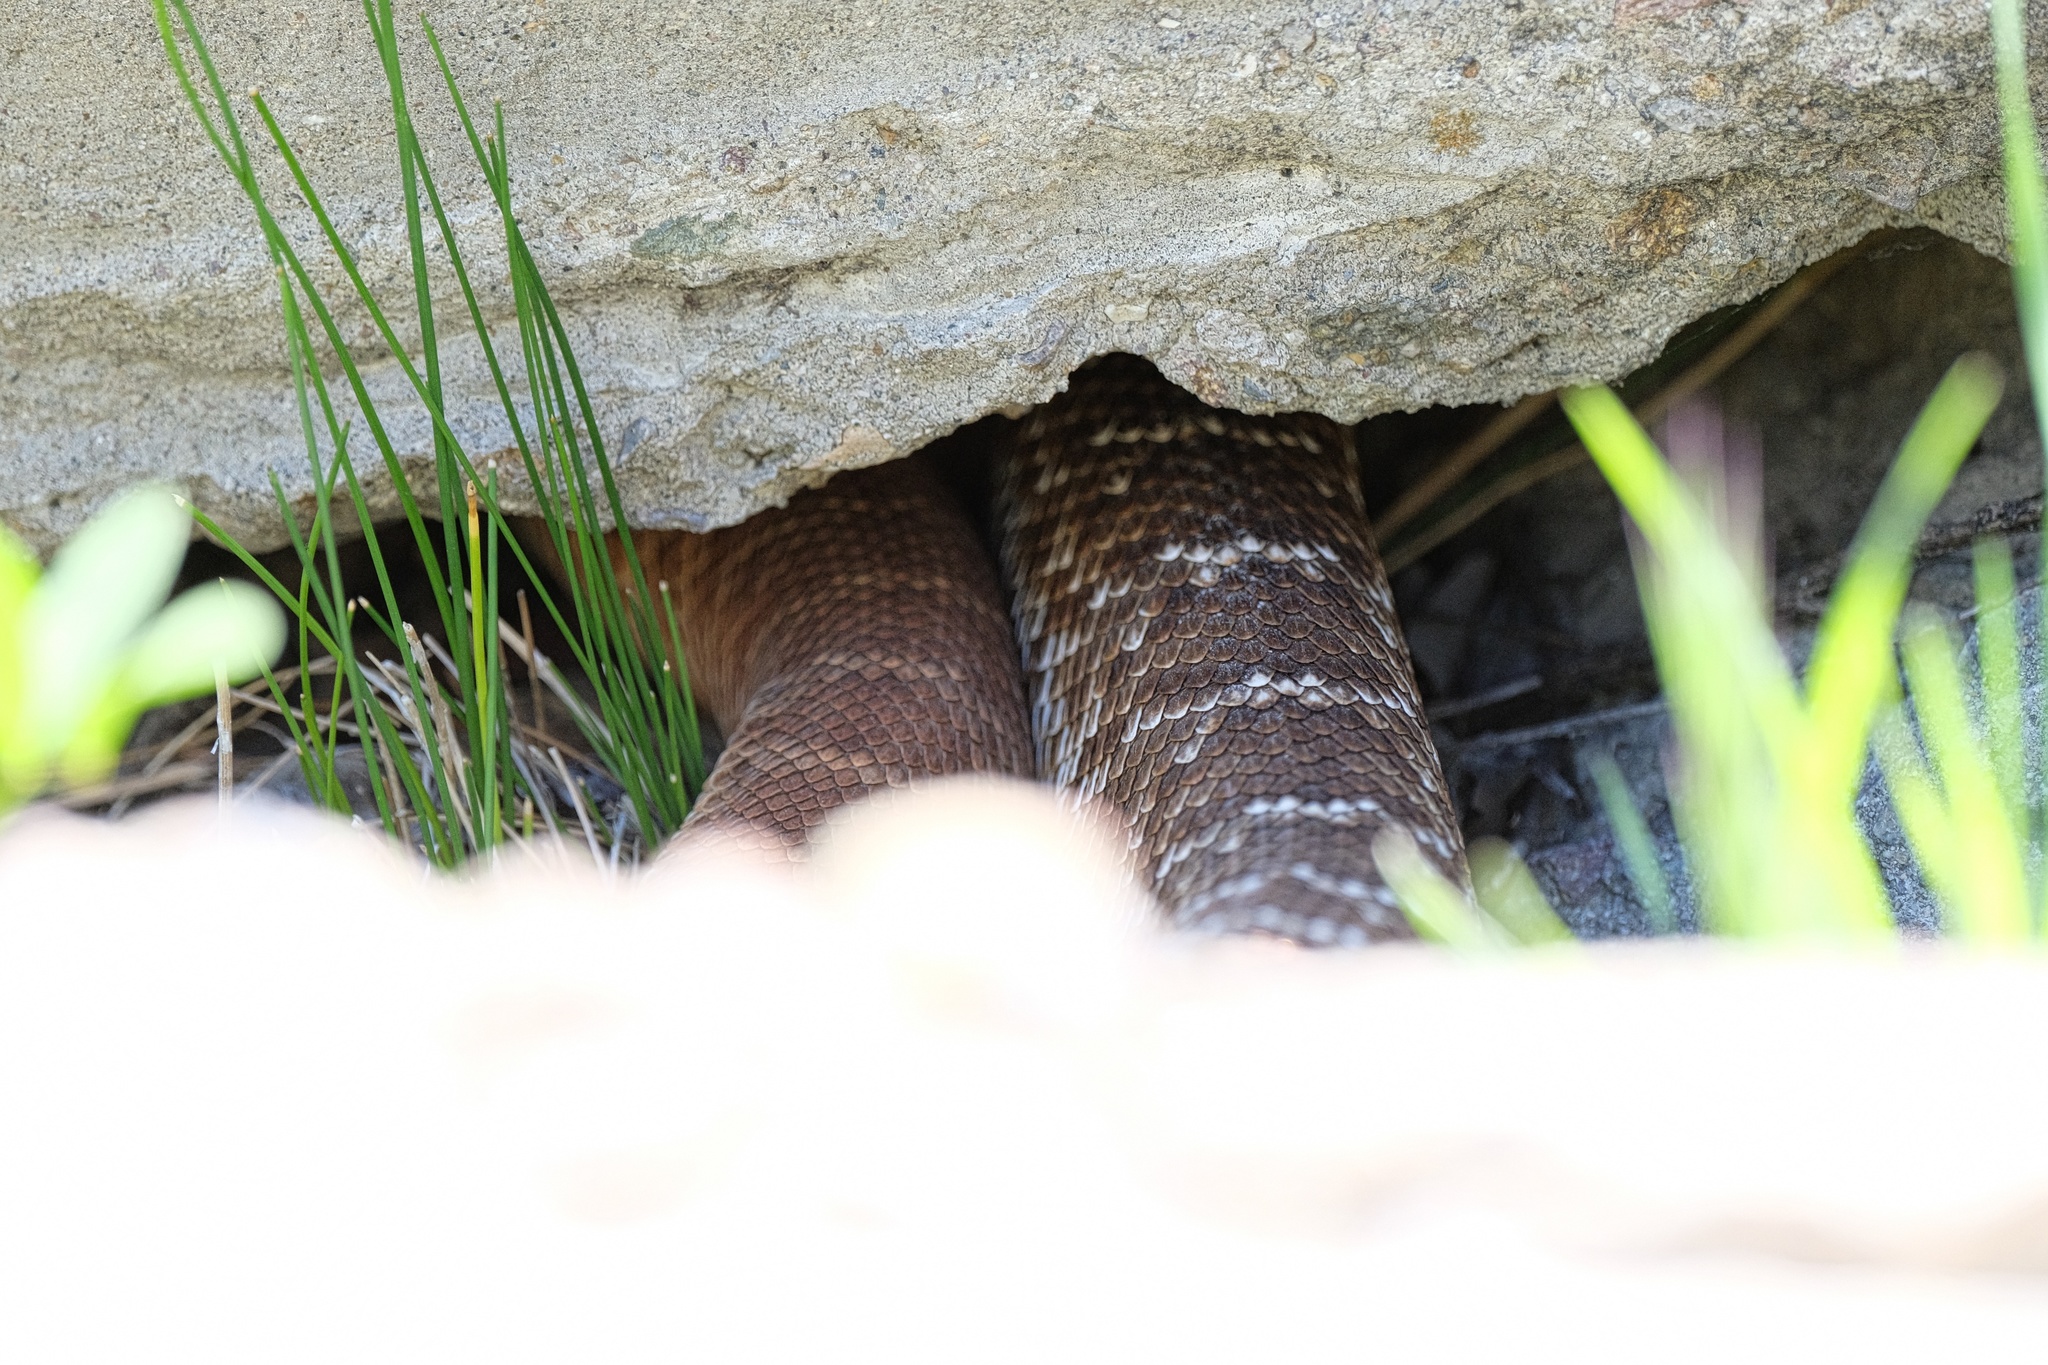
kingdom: Animalia
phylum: Chordata
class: Squamata
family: Viperidae
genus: Crotalus
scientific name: Crotalus ruber
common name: Red diamond rattlesnake
